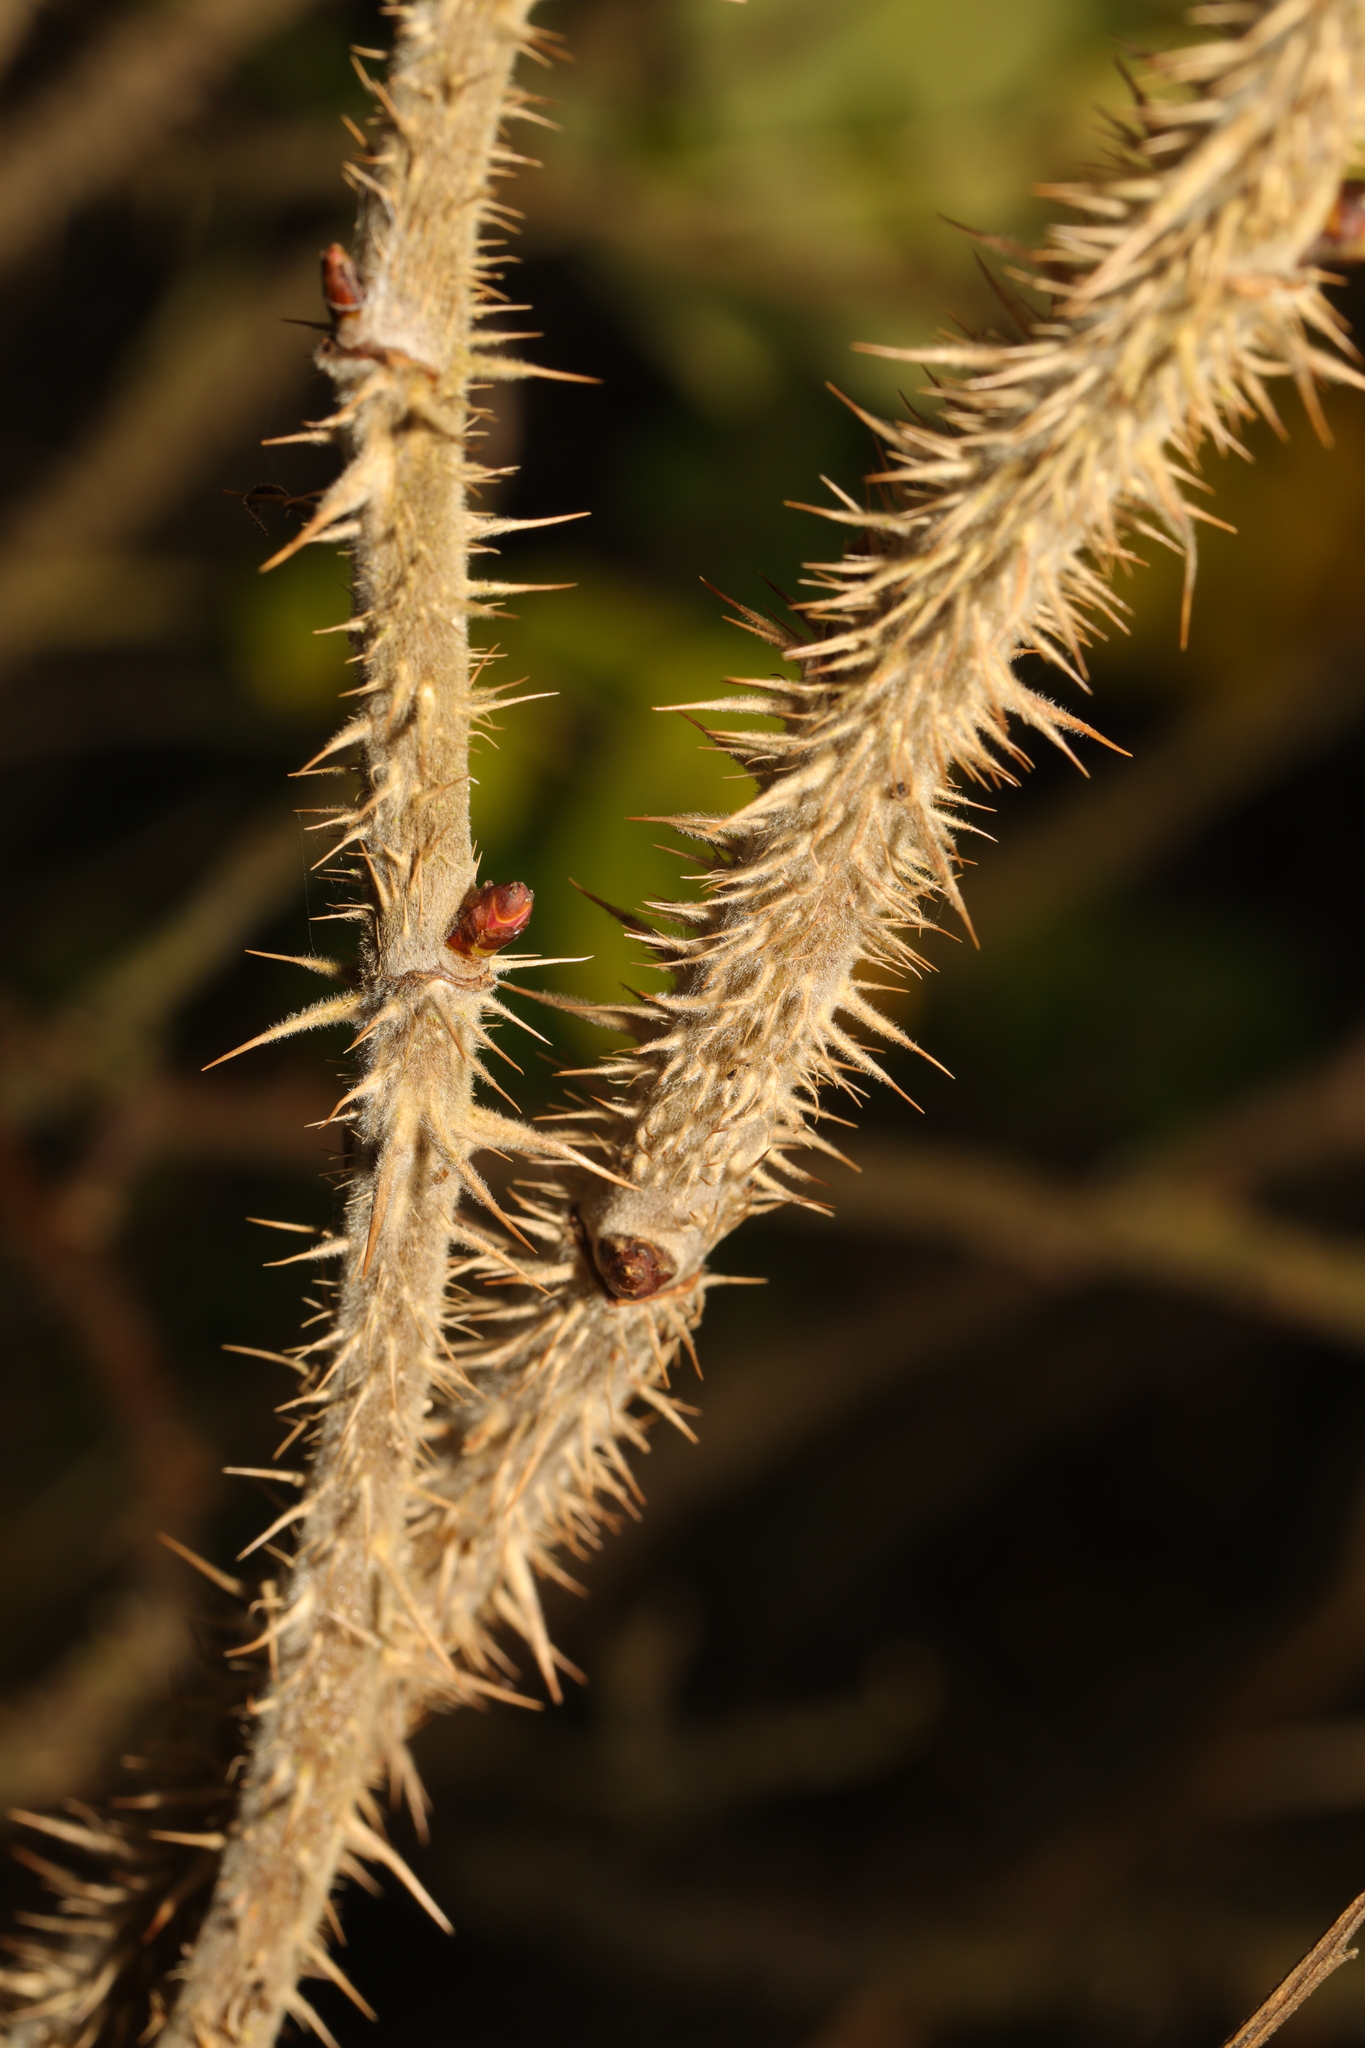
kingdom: Plantae
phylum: Tracheophyta
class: Magnoliopsida
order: Rosales
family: Rosaceae
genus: Rosa
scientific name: Rosa rugosa
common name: Japanese rose
